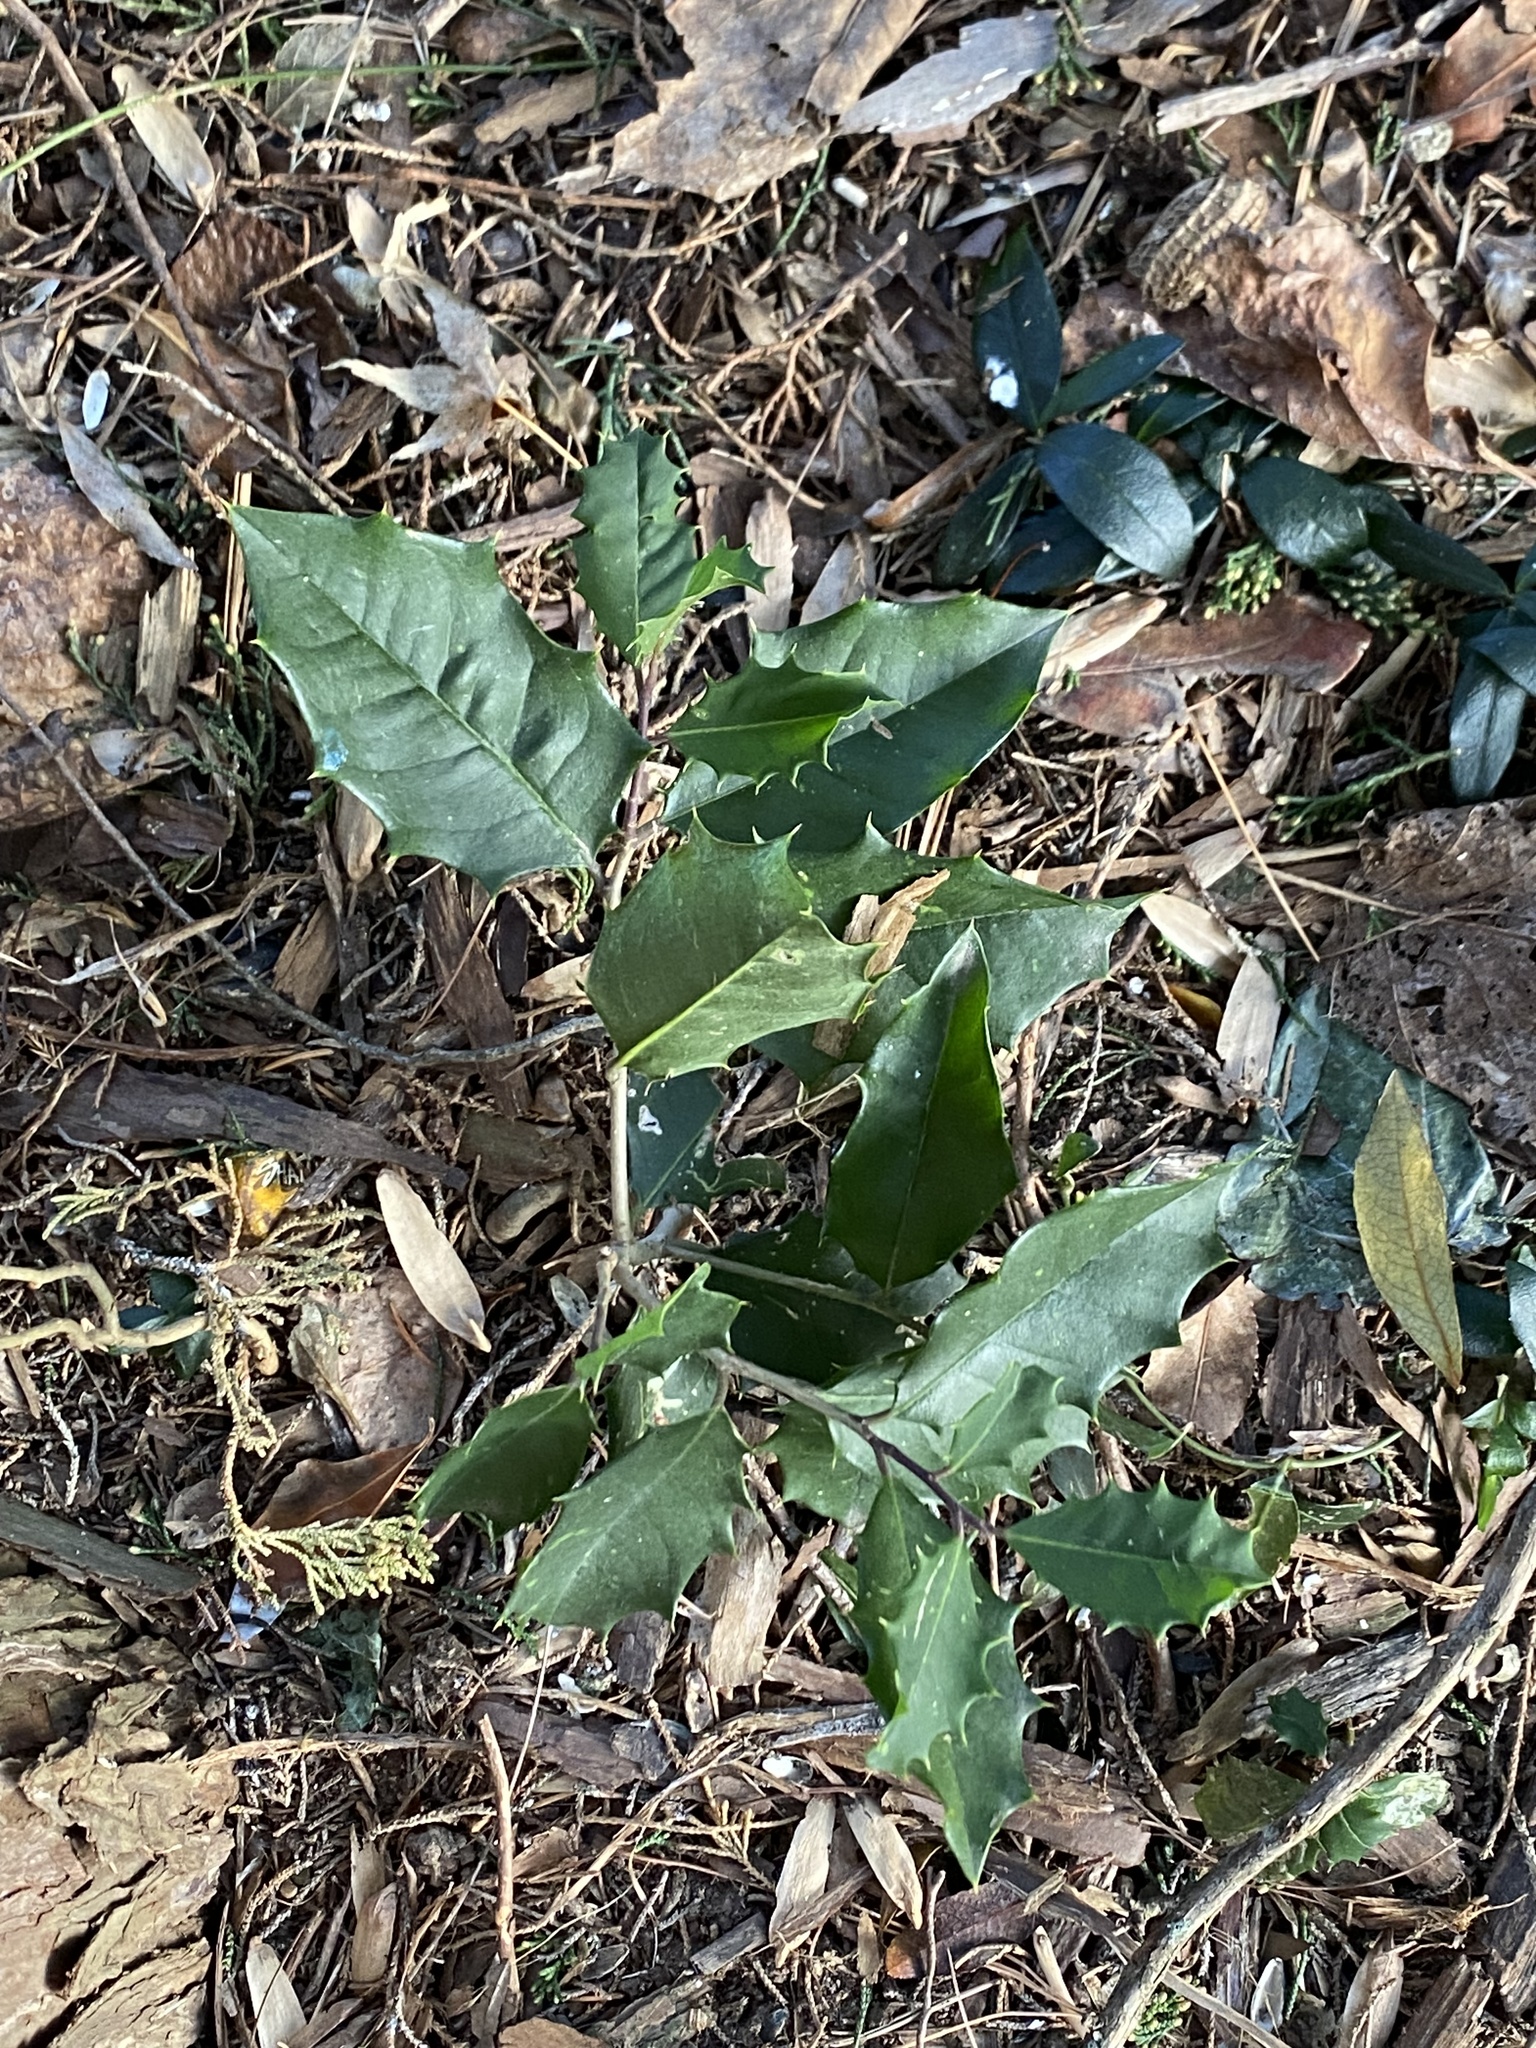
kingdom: Plantae
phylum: Tracheophyta
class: Magnoliopsida
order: Aquifoliales
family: Aquifoliaceae
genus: Ilex
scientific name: Ilex opaca
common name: American holly
